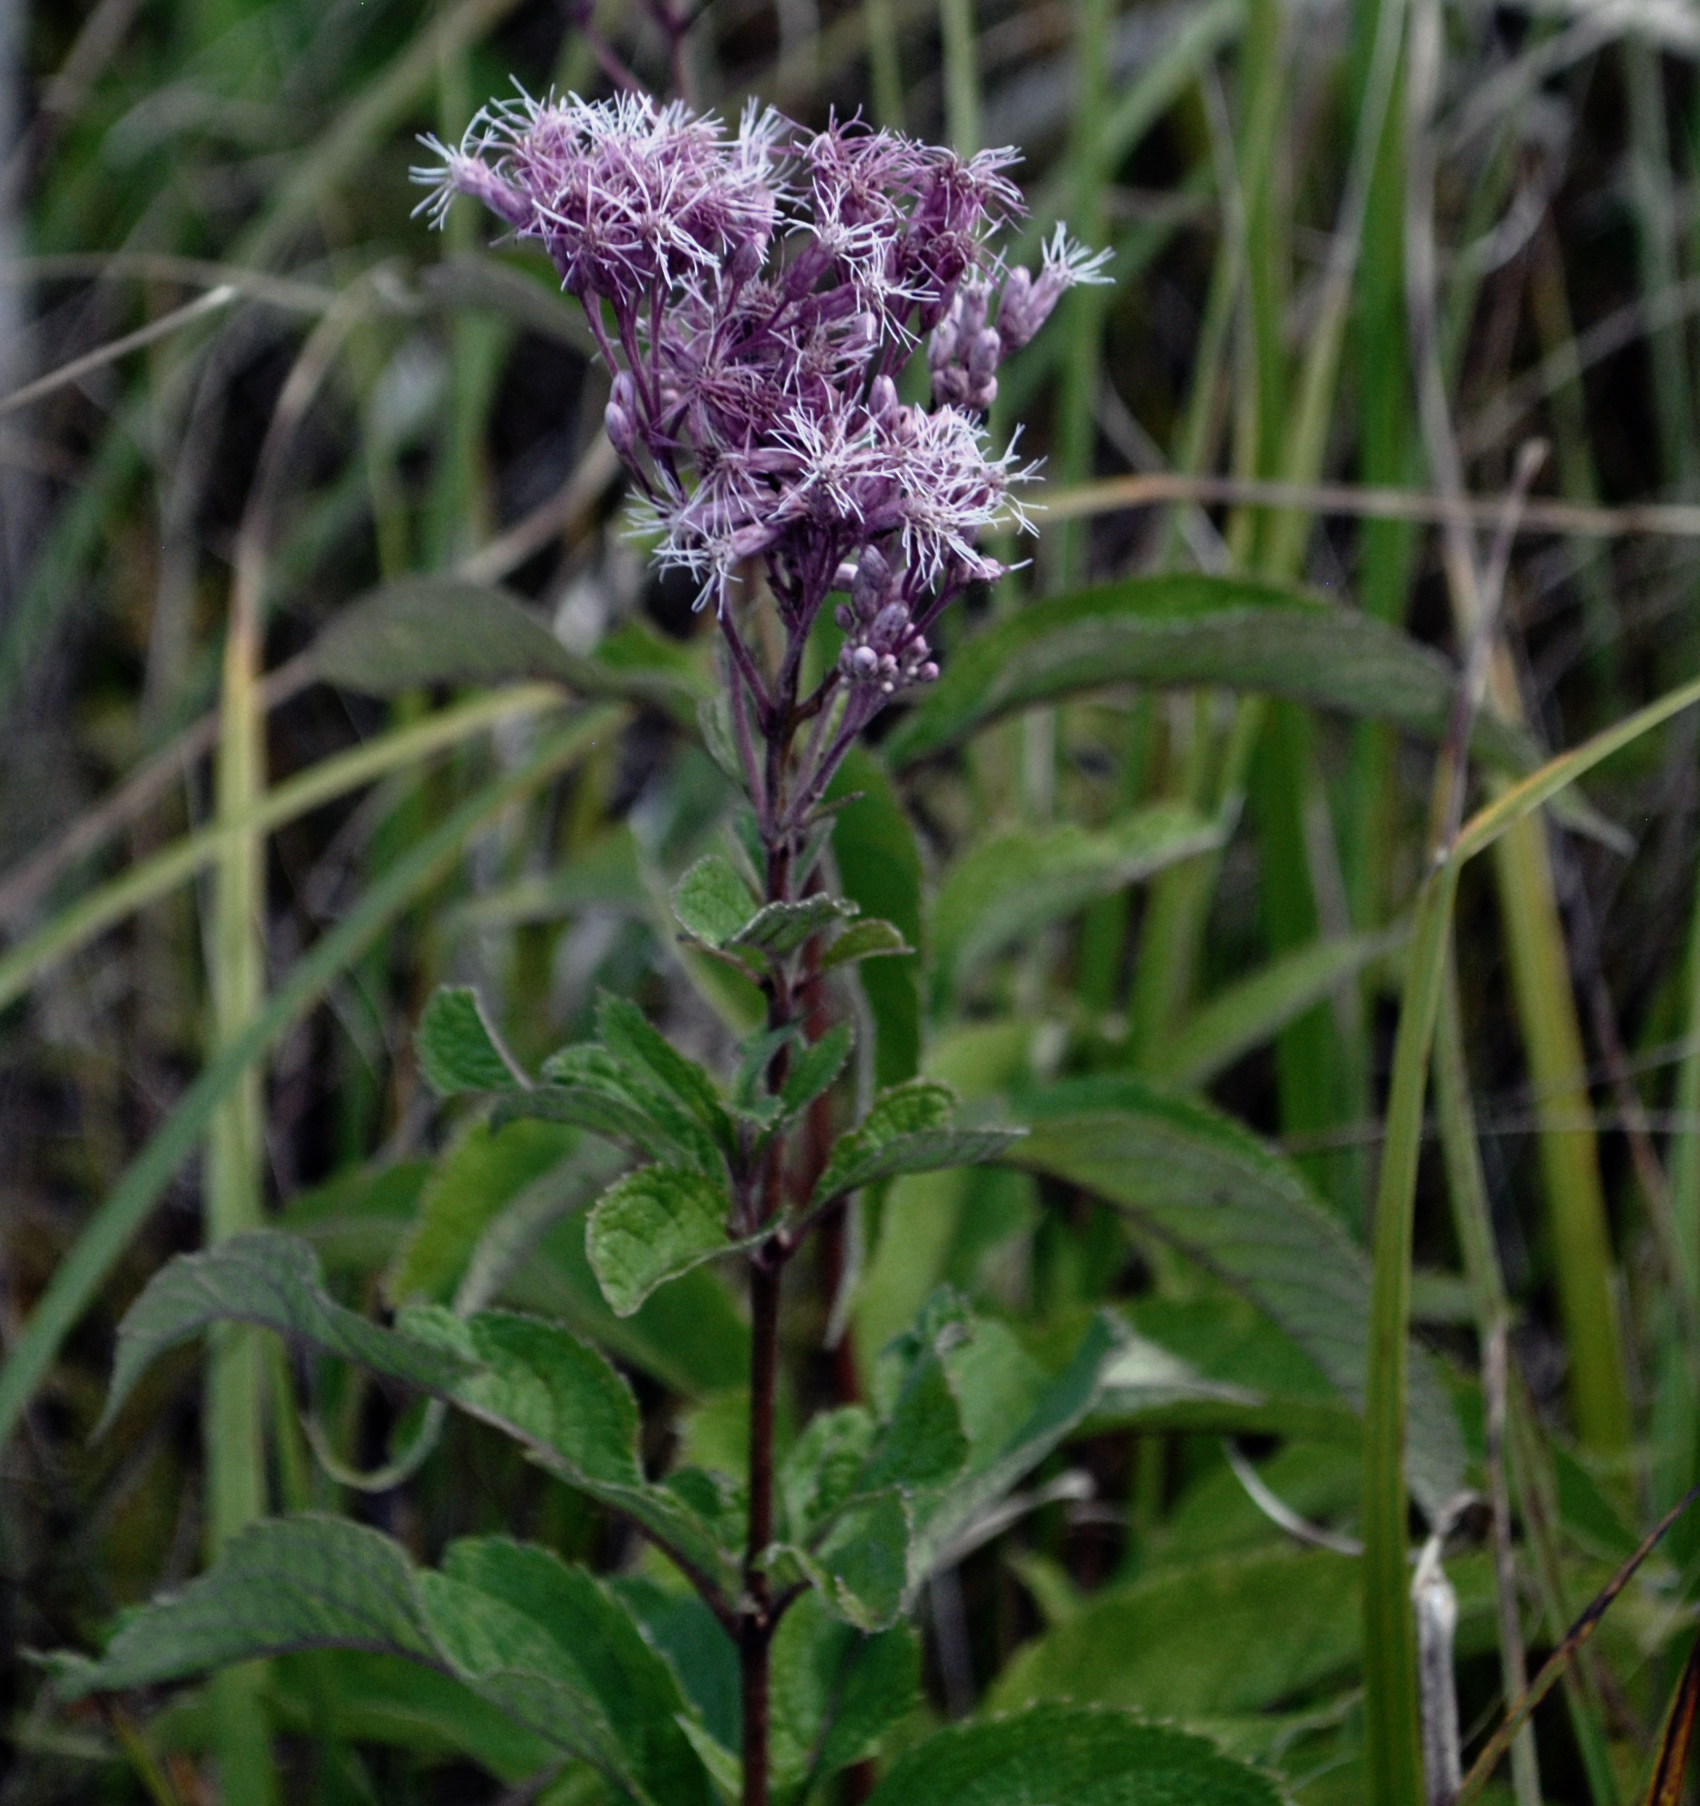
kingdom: Plantae
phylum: Tracheophyta
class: Magnoliopsida
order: Asterales
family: Asteraceae
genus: Eutrochium
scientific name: Eutrochium maculatum
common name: Spotted joe pye weed
